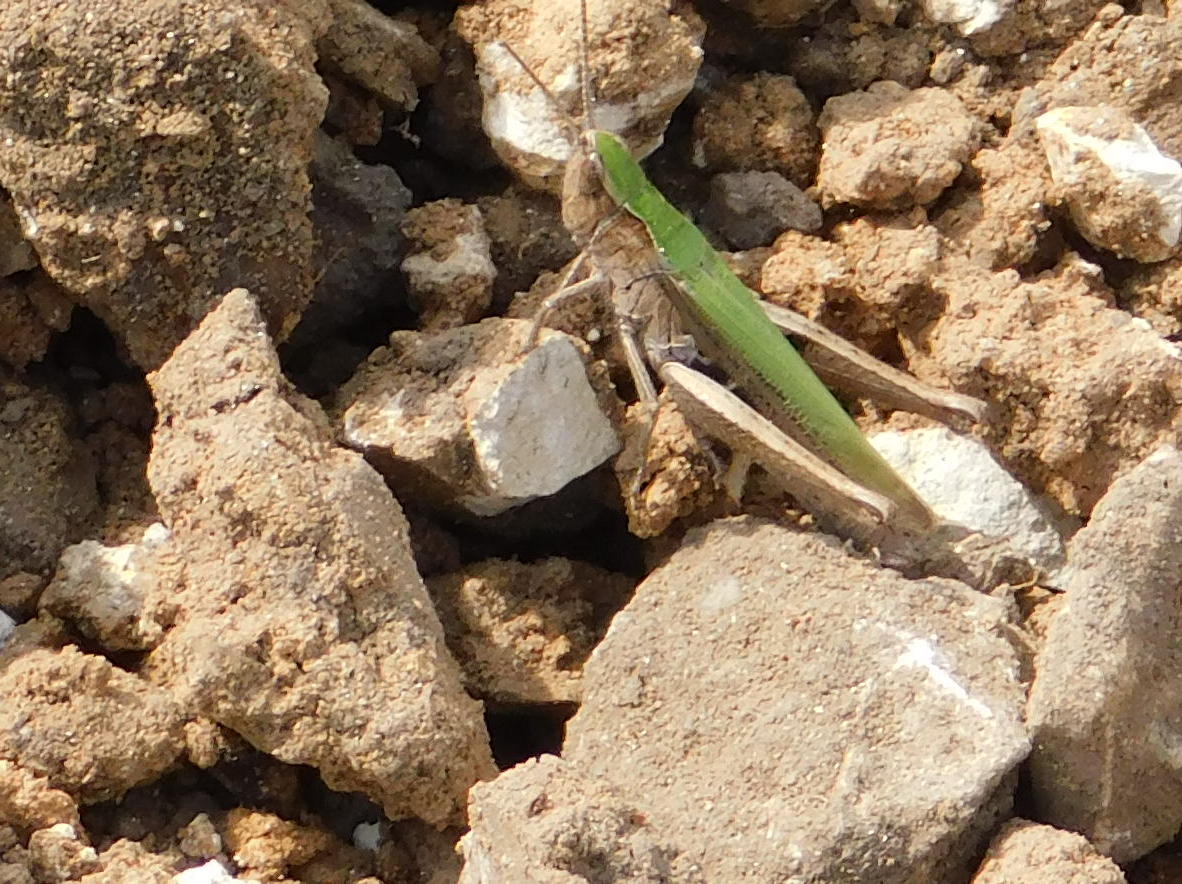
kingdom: Animalia
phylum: Arthropoda
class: Insecta
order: Orthoptera
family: Acrididae
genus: Chorthippus
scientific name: Chorthippus dorsatus
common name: Steppe grasshopper
